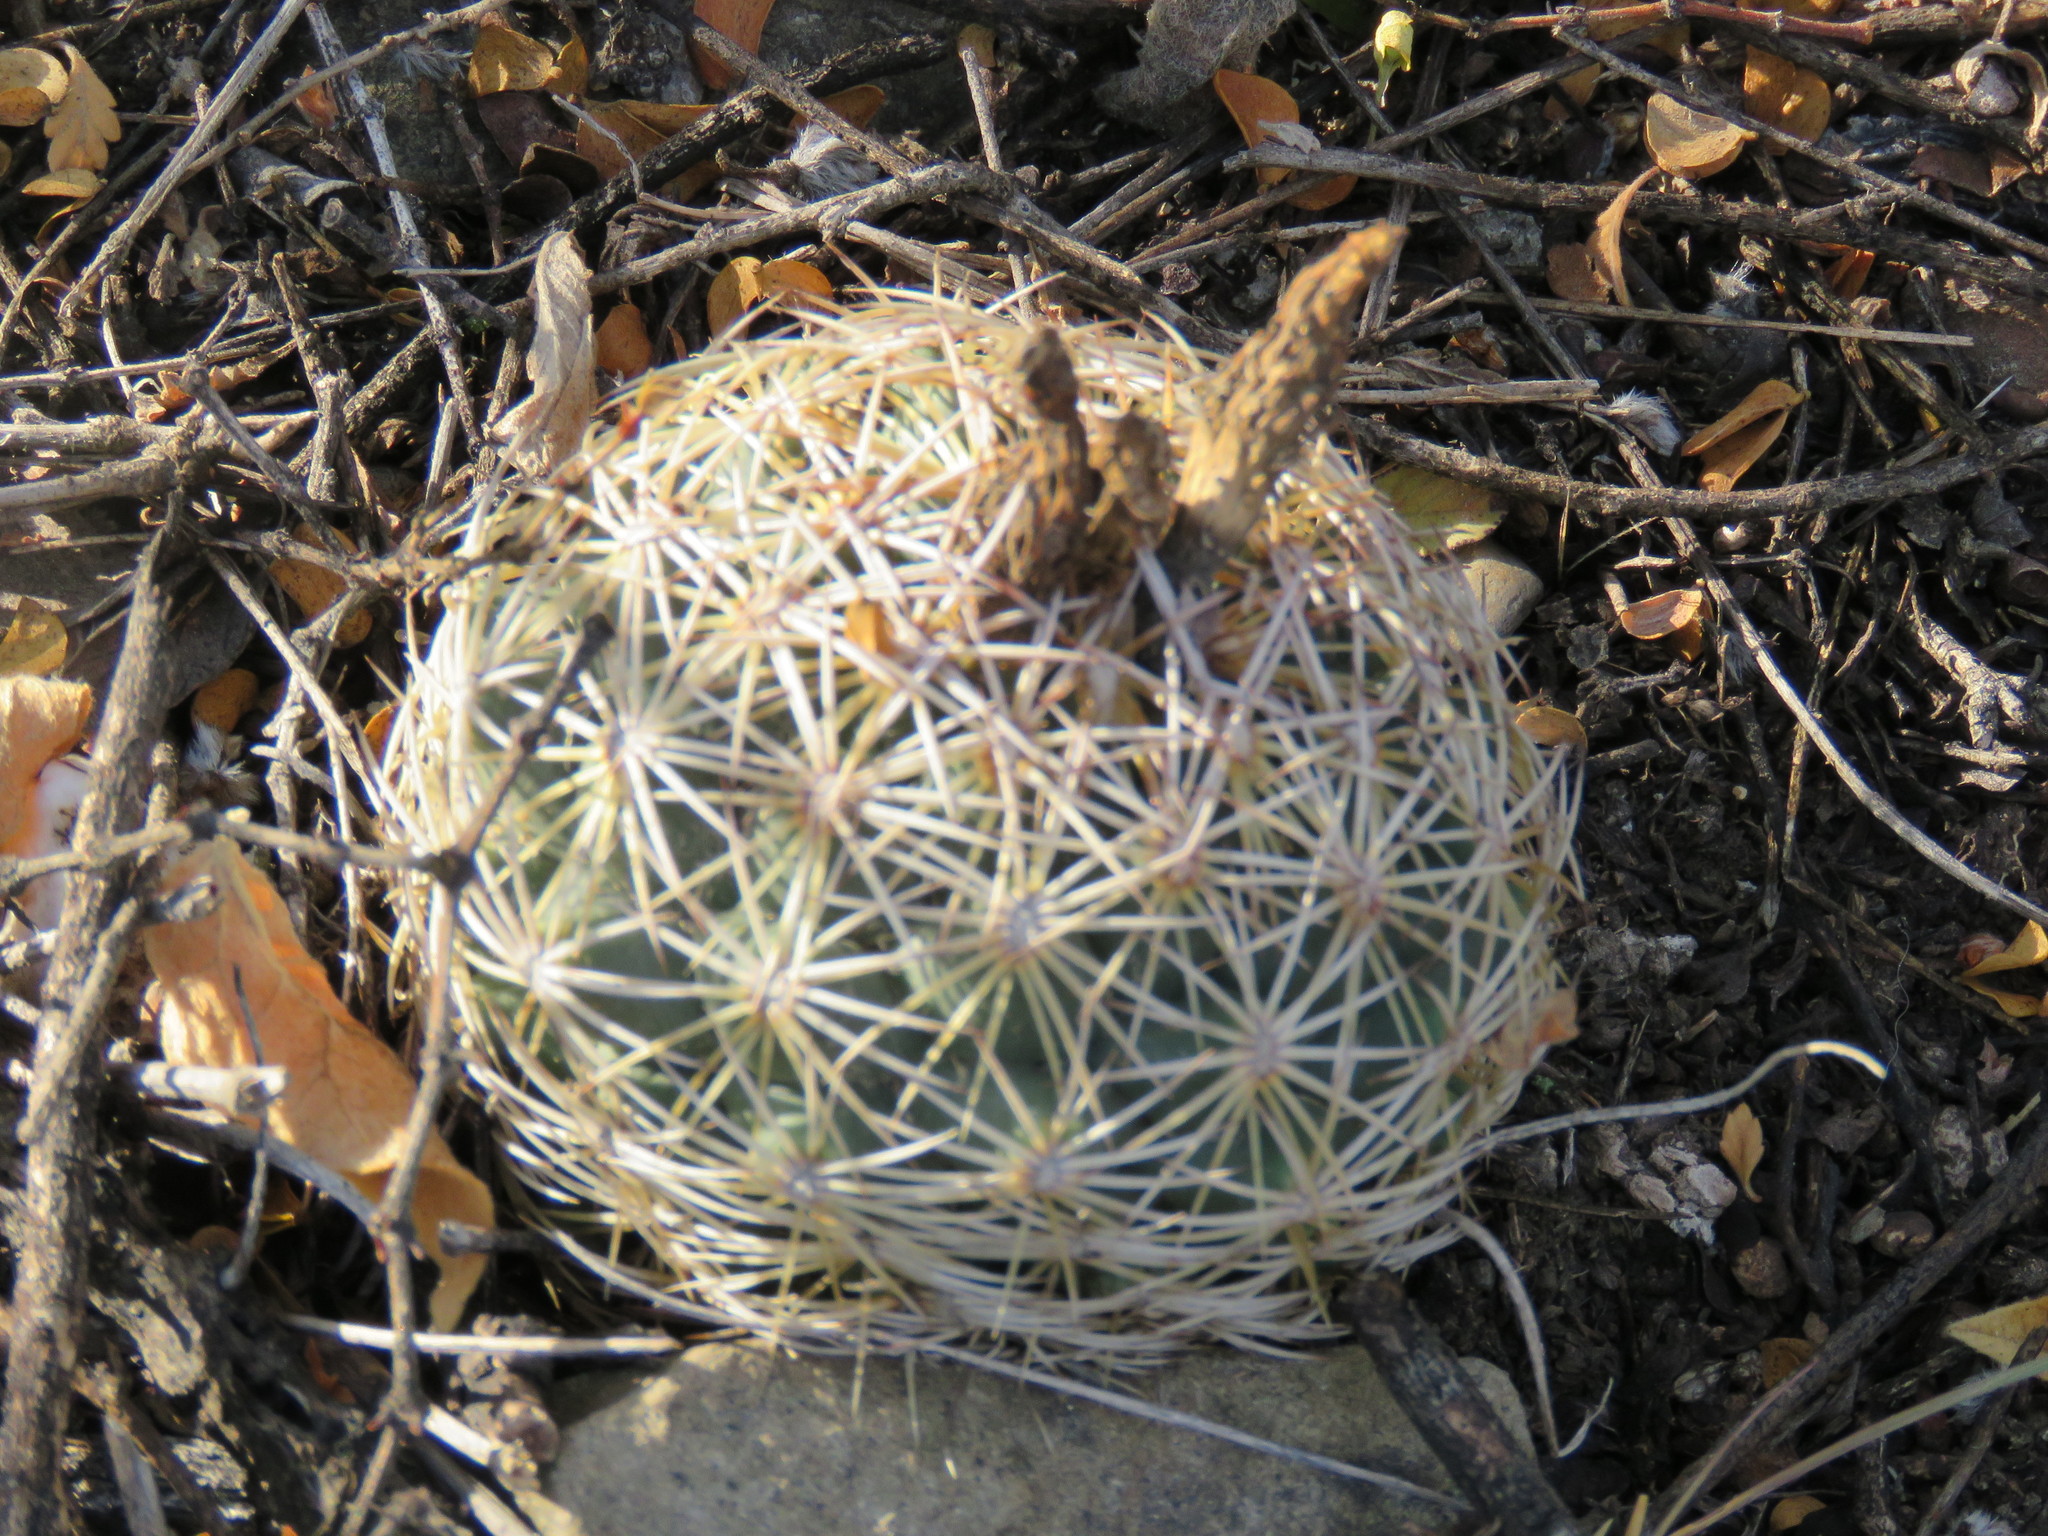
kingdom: Plantae
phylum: Tracheophyta
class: Magnoliopsida
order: Caryophyllales
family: Cactaceae
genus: Coryphantha
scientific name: Coryphantha cornifera
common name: Rhinoceros cactus
